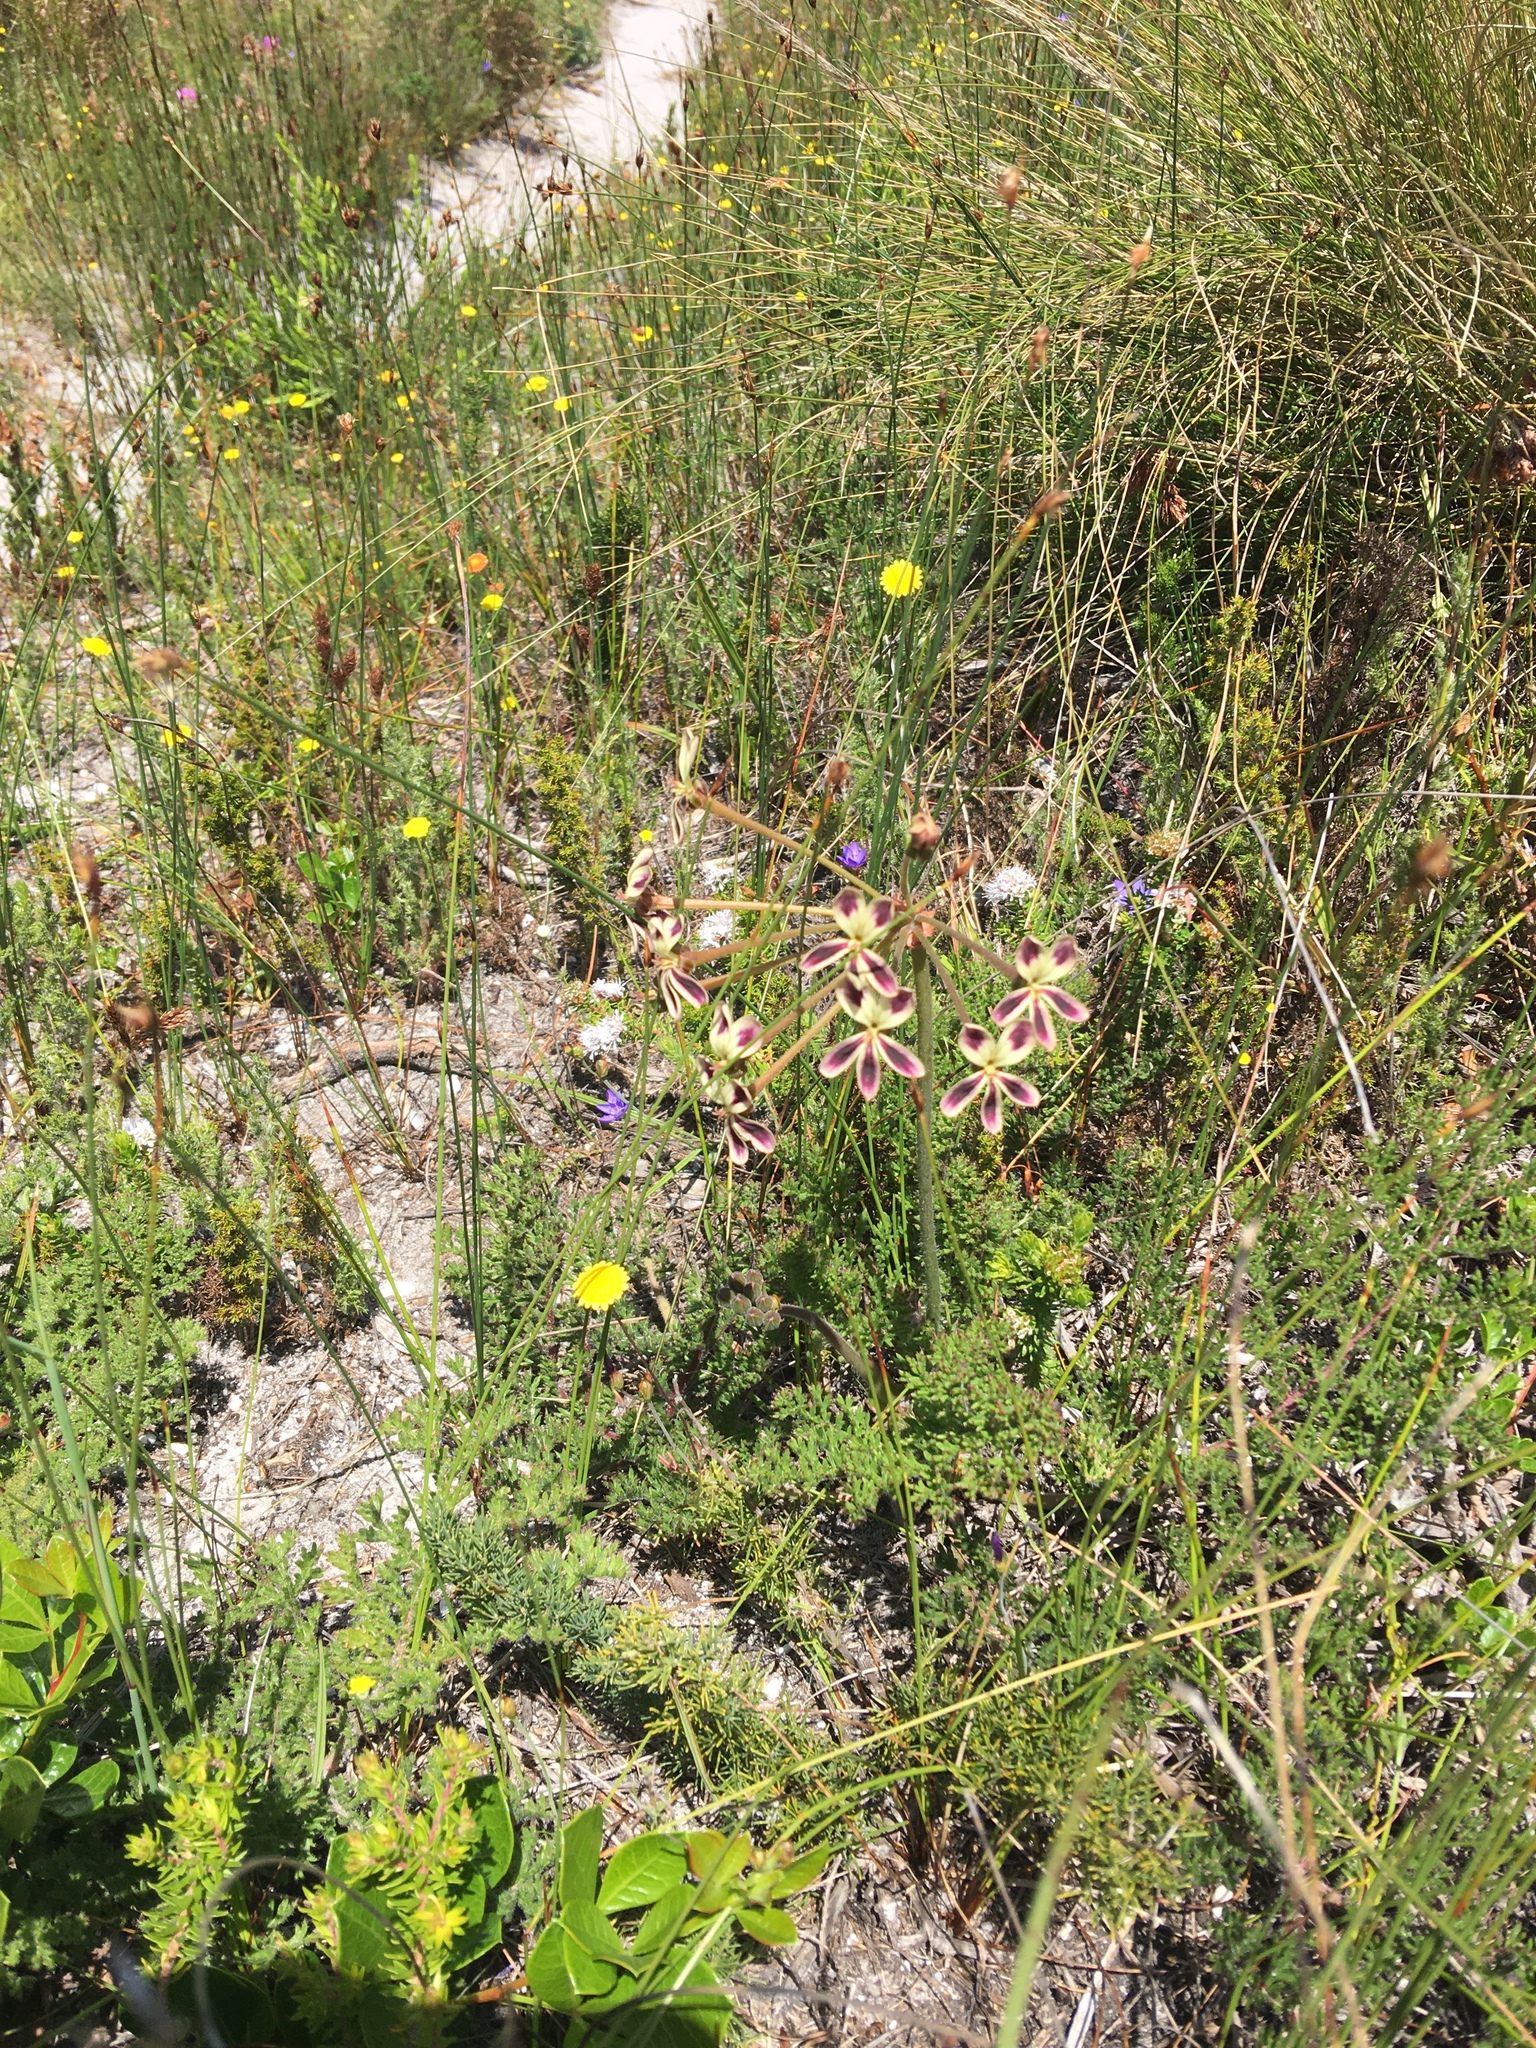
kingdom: Plantae
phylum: Tracheophyta
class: Magnoliopsida
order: Geraniales
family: Geraniaceae
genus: Pelargonium
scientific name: Pelargonium triste
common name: Night-scent pelargonium
